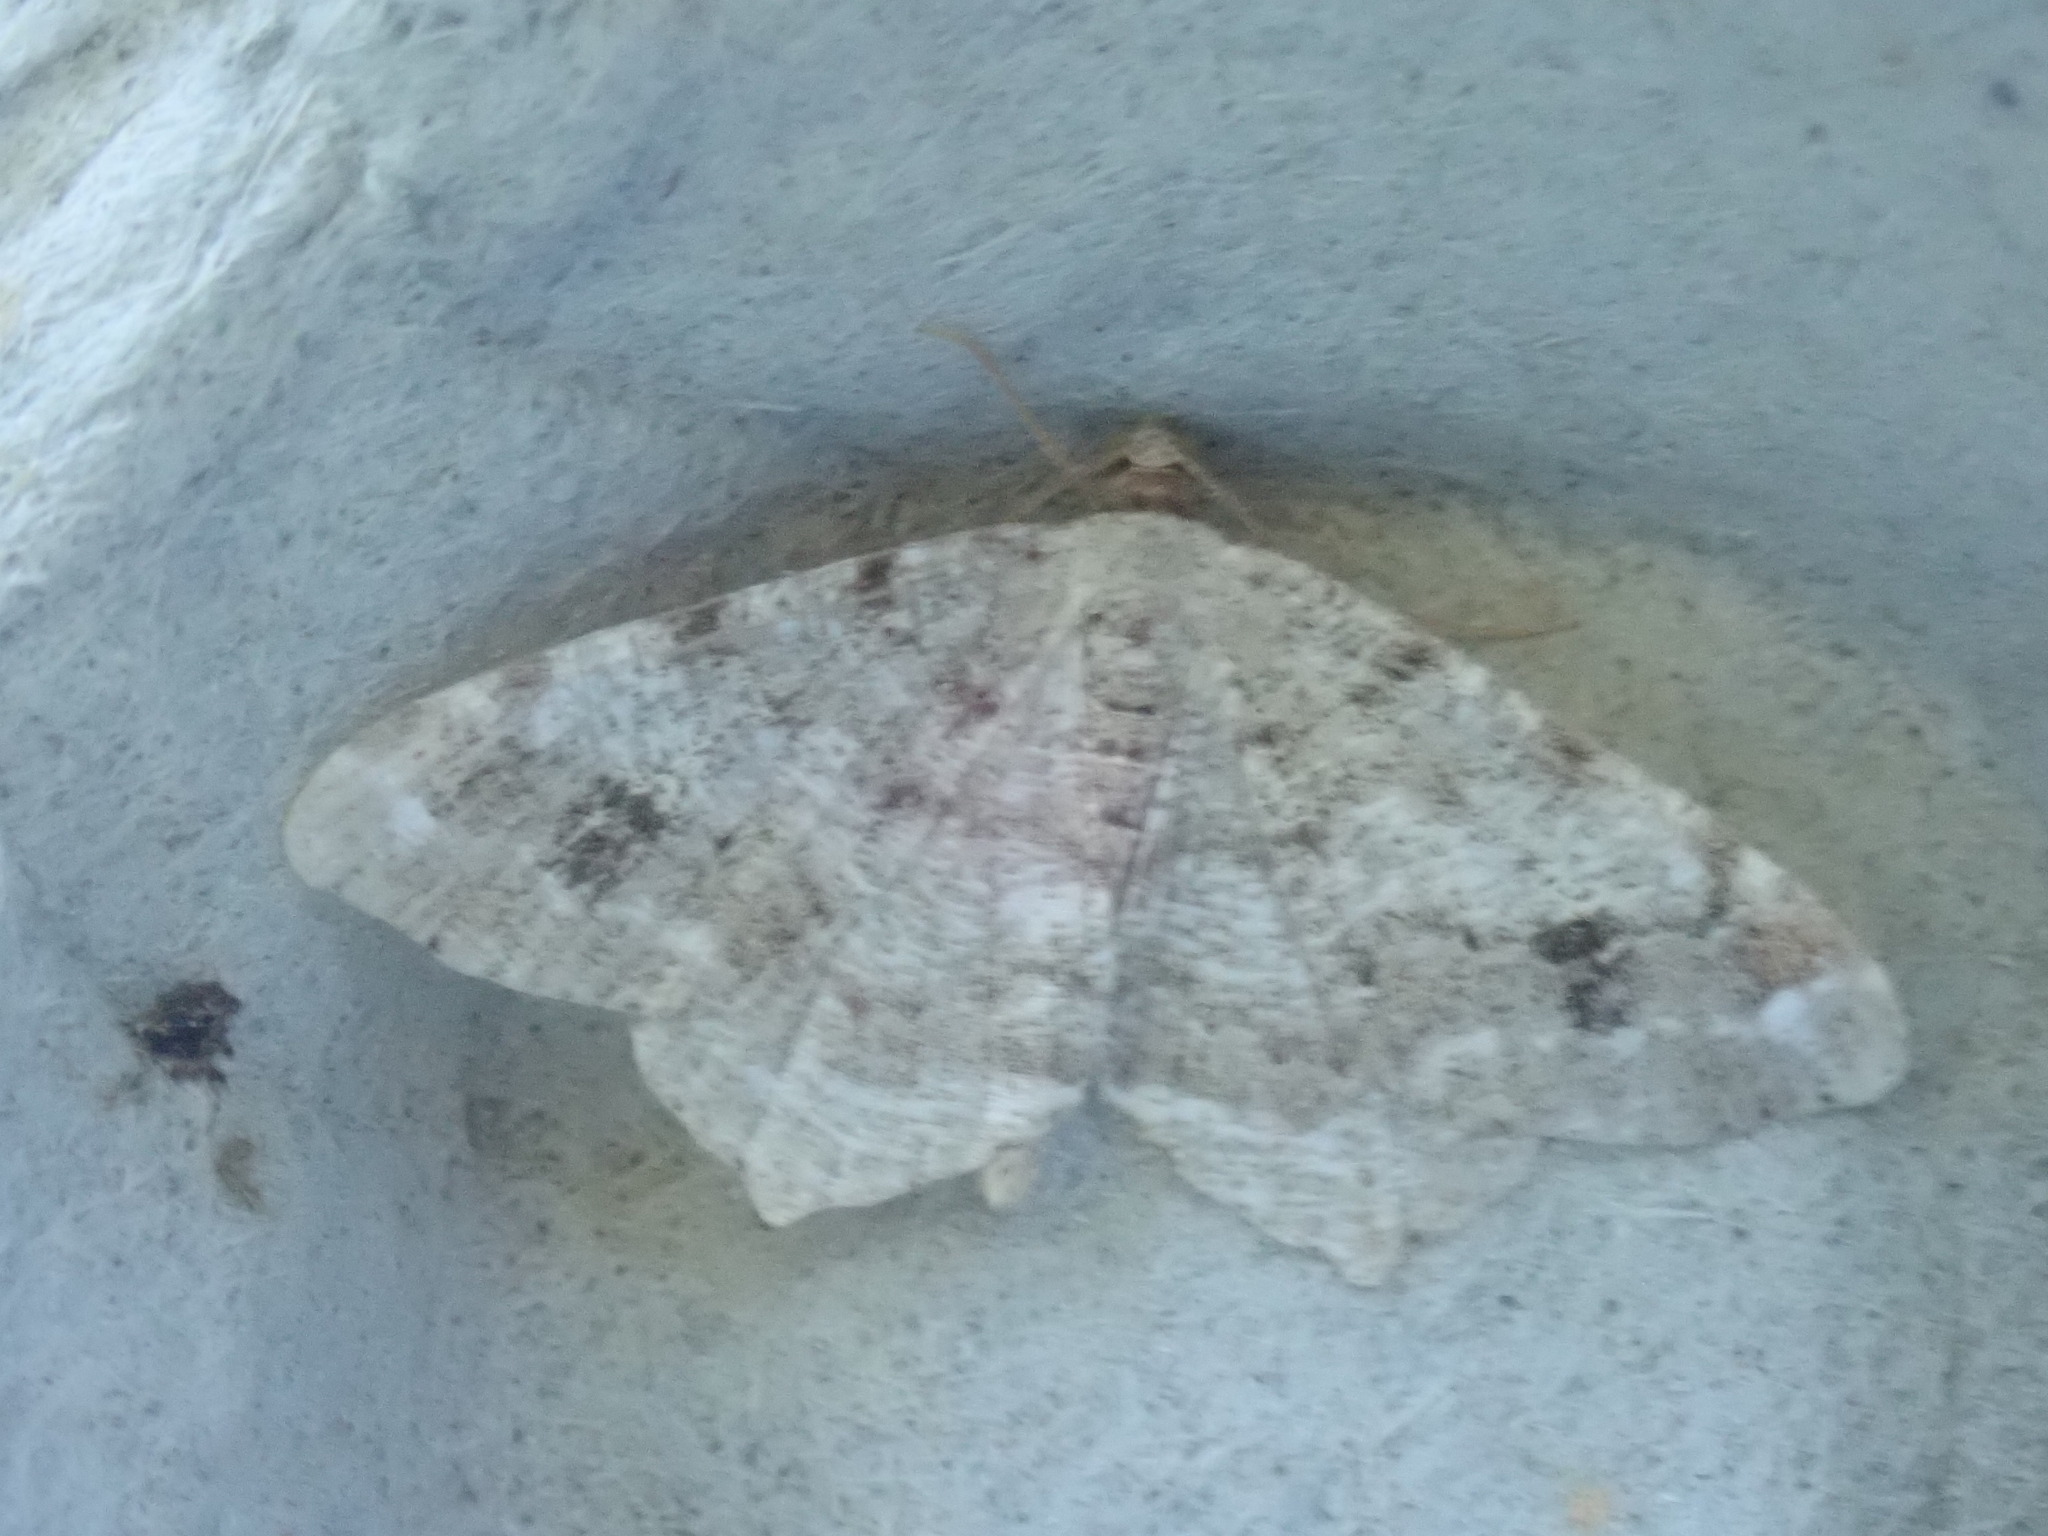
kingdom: Animalia
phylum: Arthropoda
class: Insecta
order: Lepidoptera
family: Geometridae
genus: Macaria
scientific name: Macaria pinistrobata
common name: White pine angle
